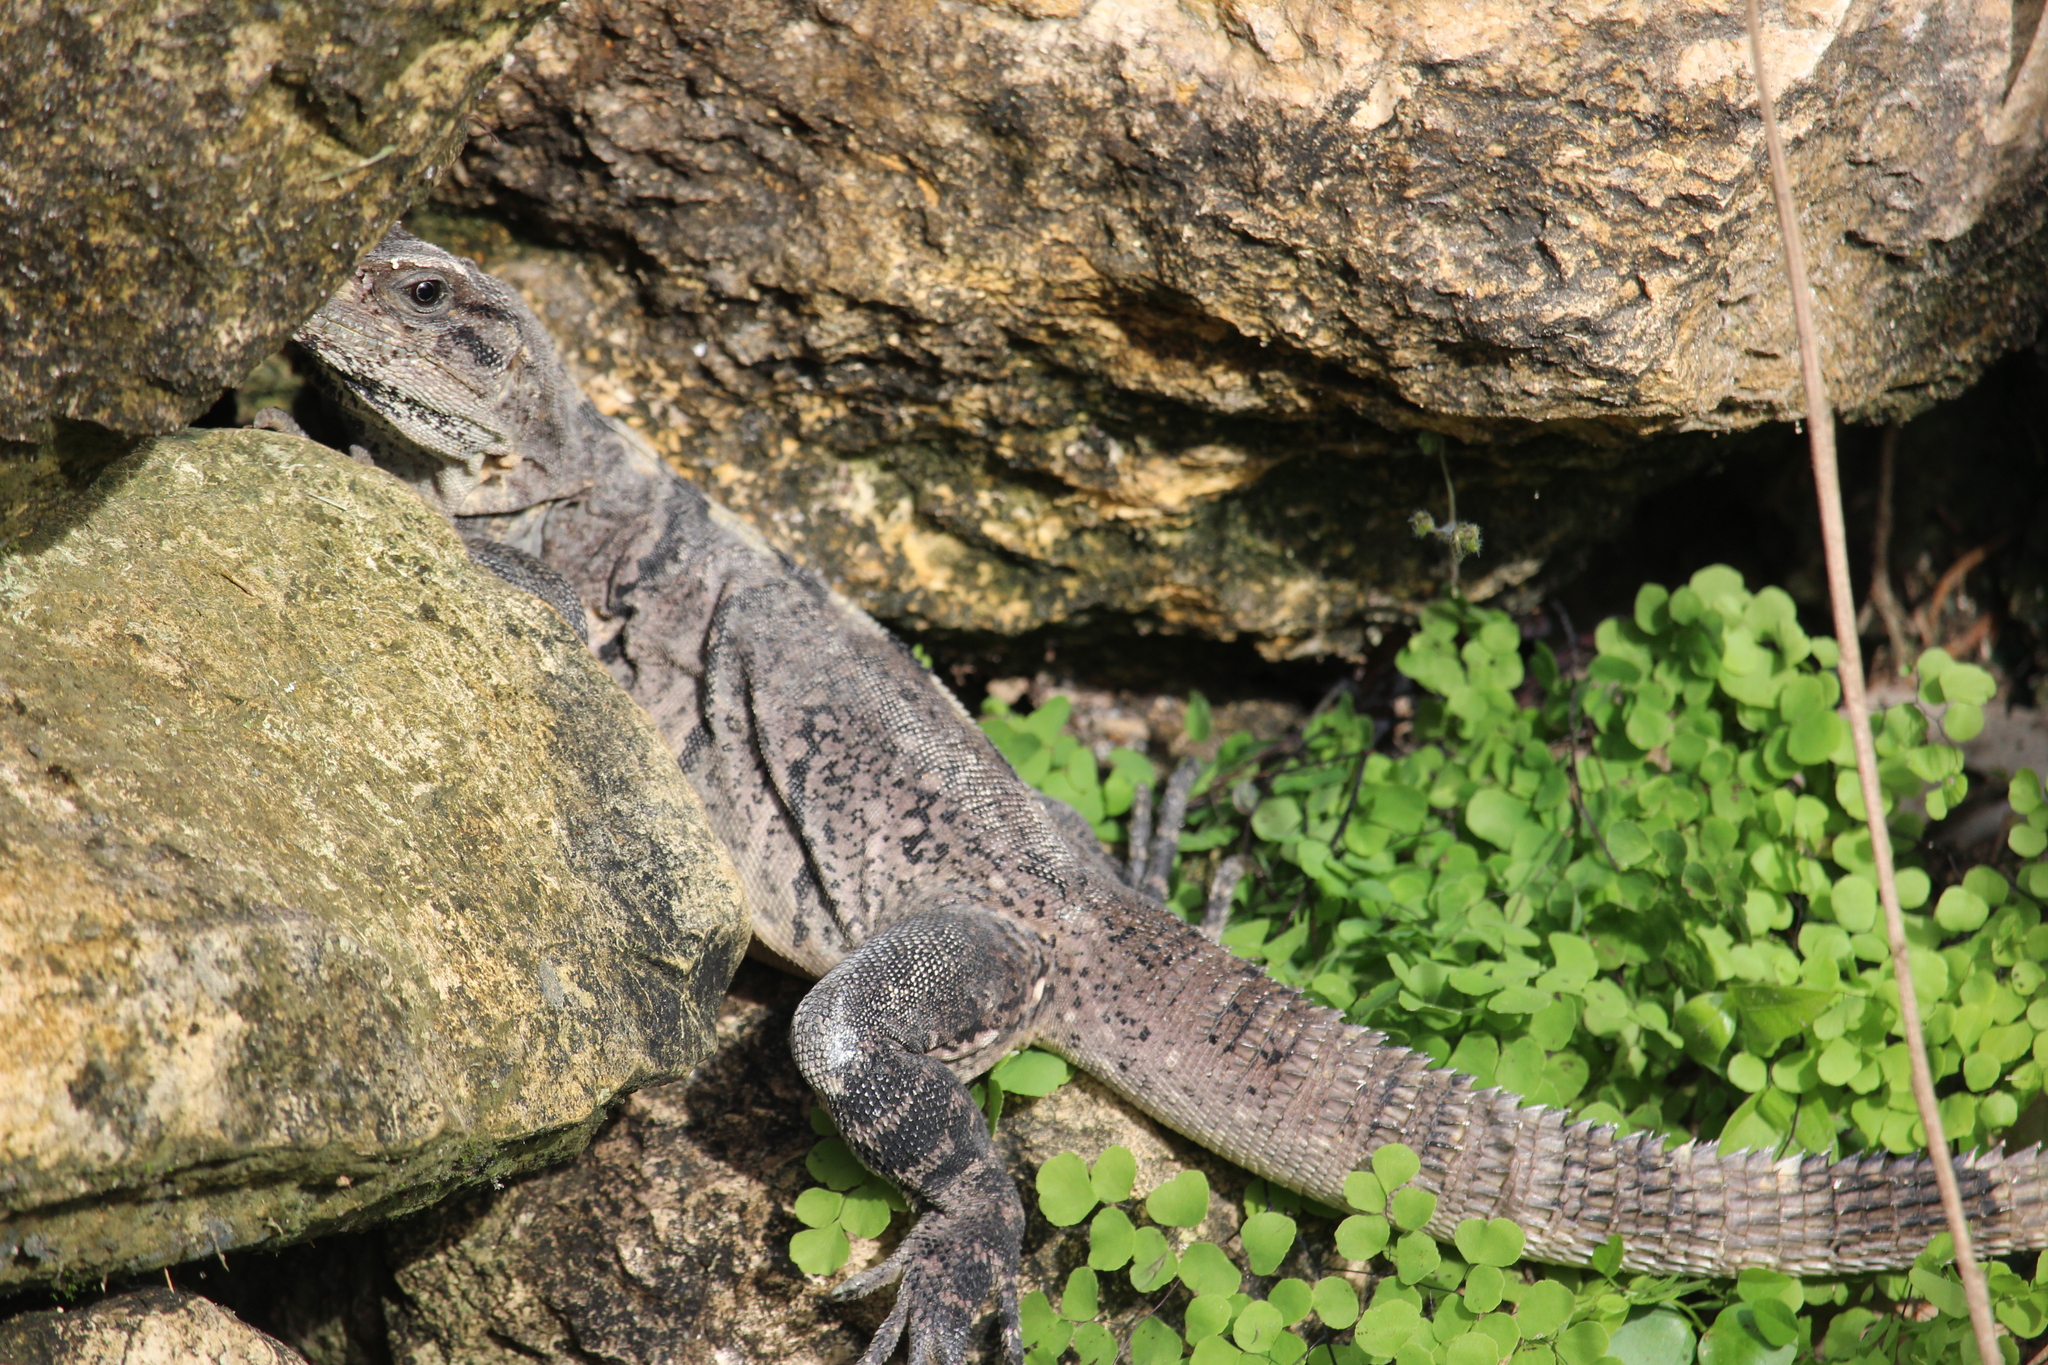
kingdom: Animalia
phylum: Chordata
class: Squamata
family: Iguanidae
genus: Ctenosaura
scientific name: Ctenosaura similis
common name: Black spiny-tailed iguana
